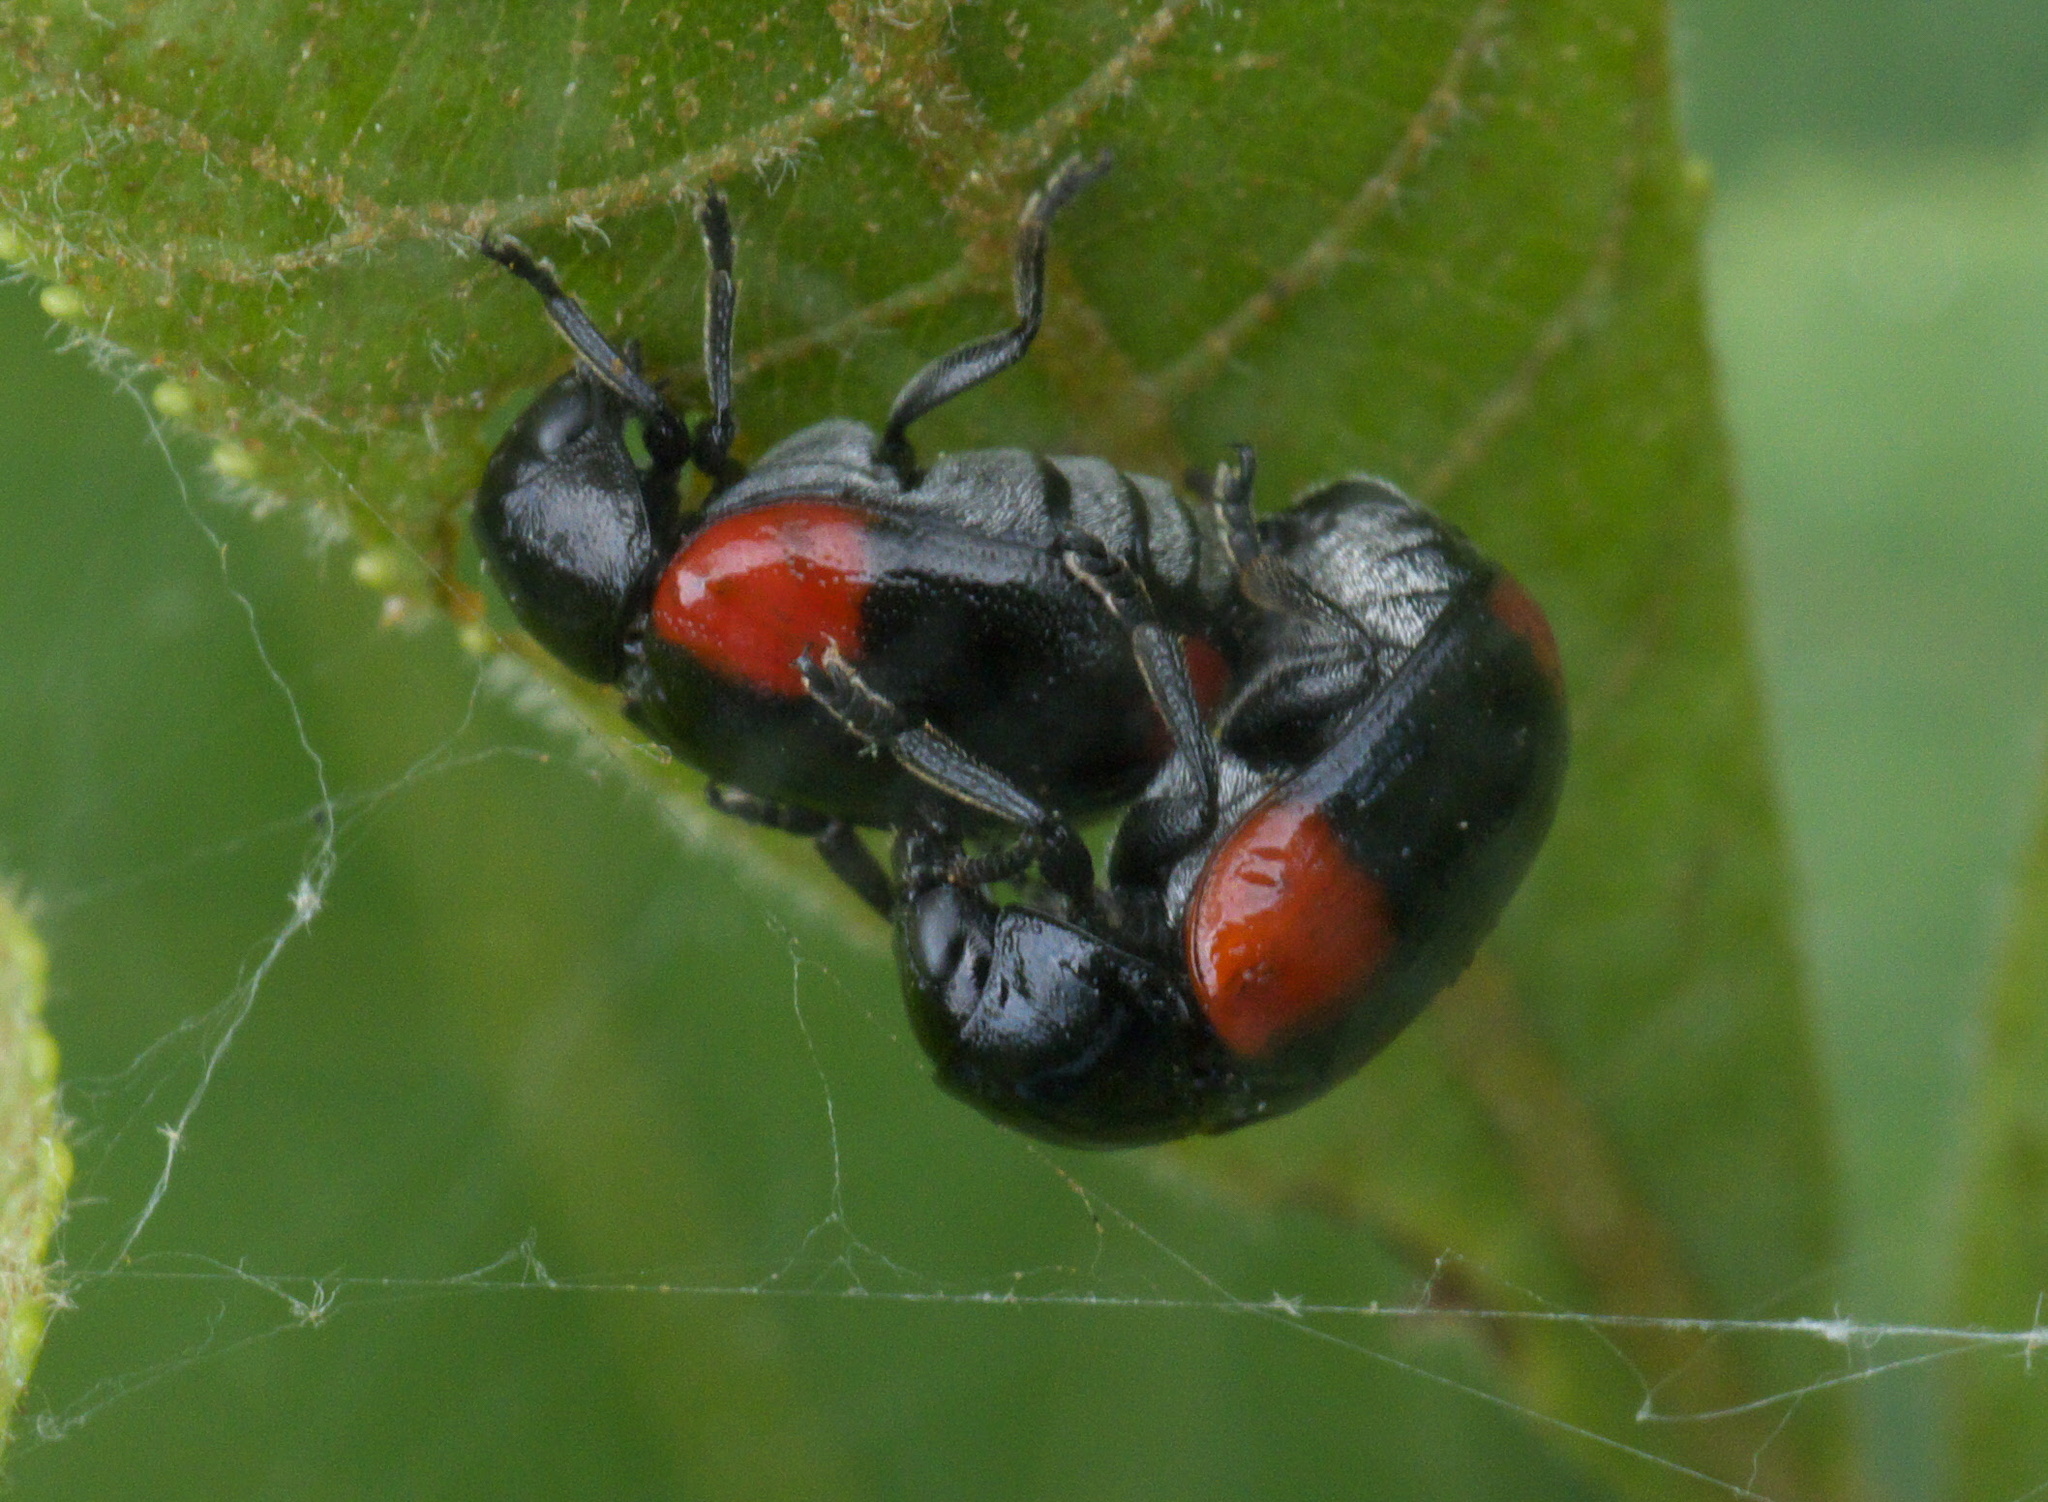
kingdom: Animalia
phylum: Arthropoda
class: Insecta
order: Coleoptera
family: Chrysomelidae
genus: Babia
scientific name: Babia quadriguttata
